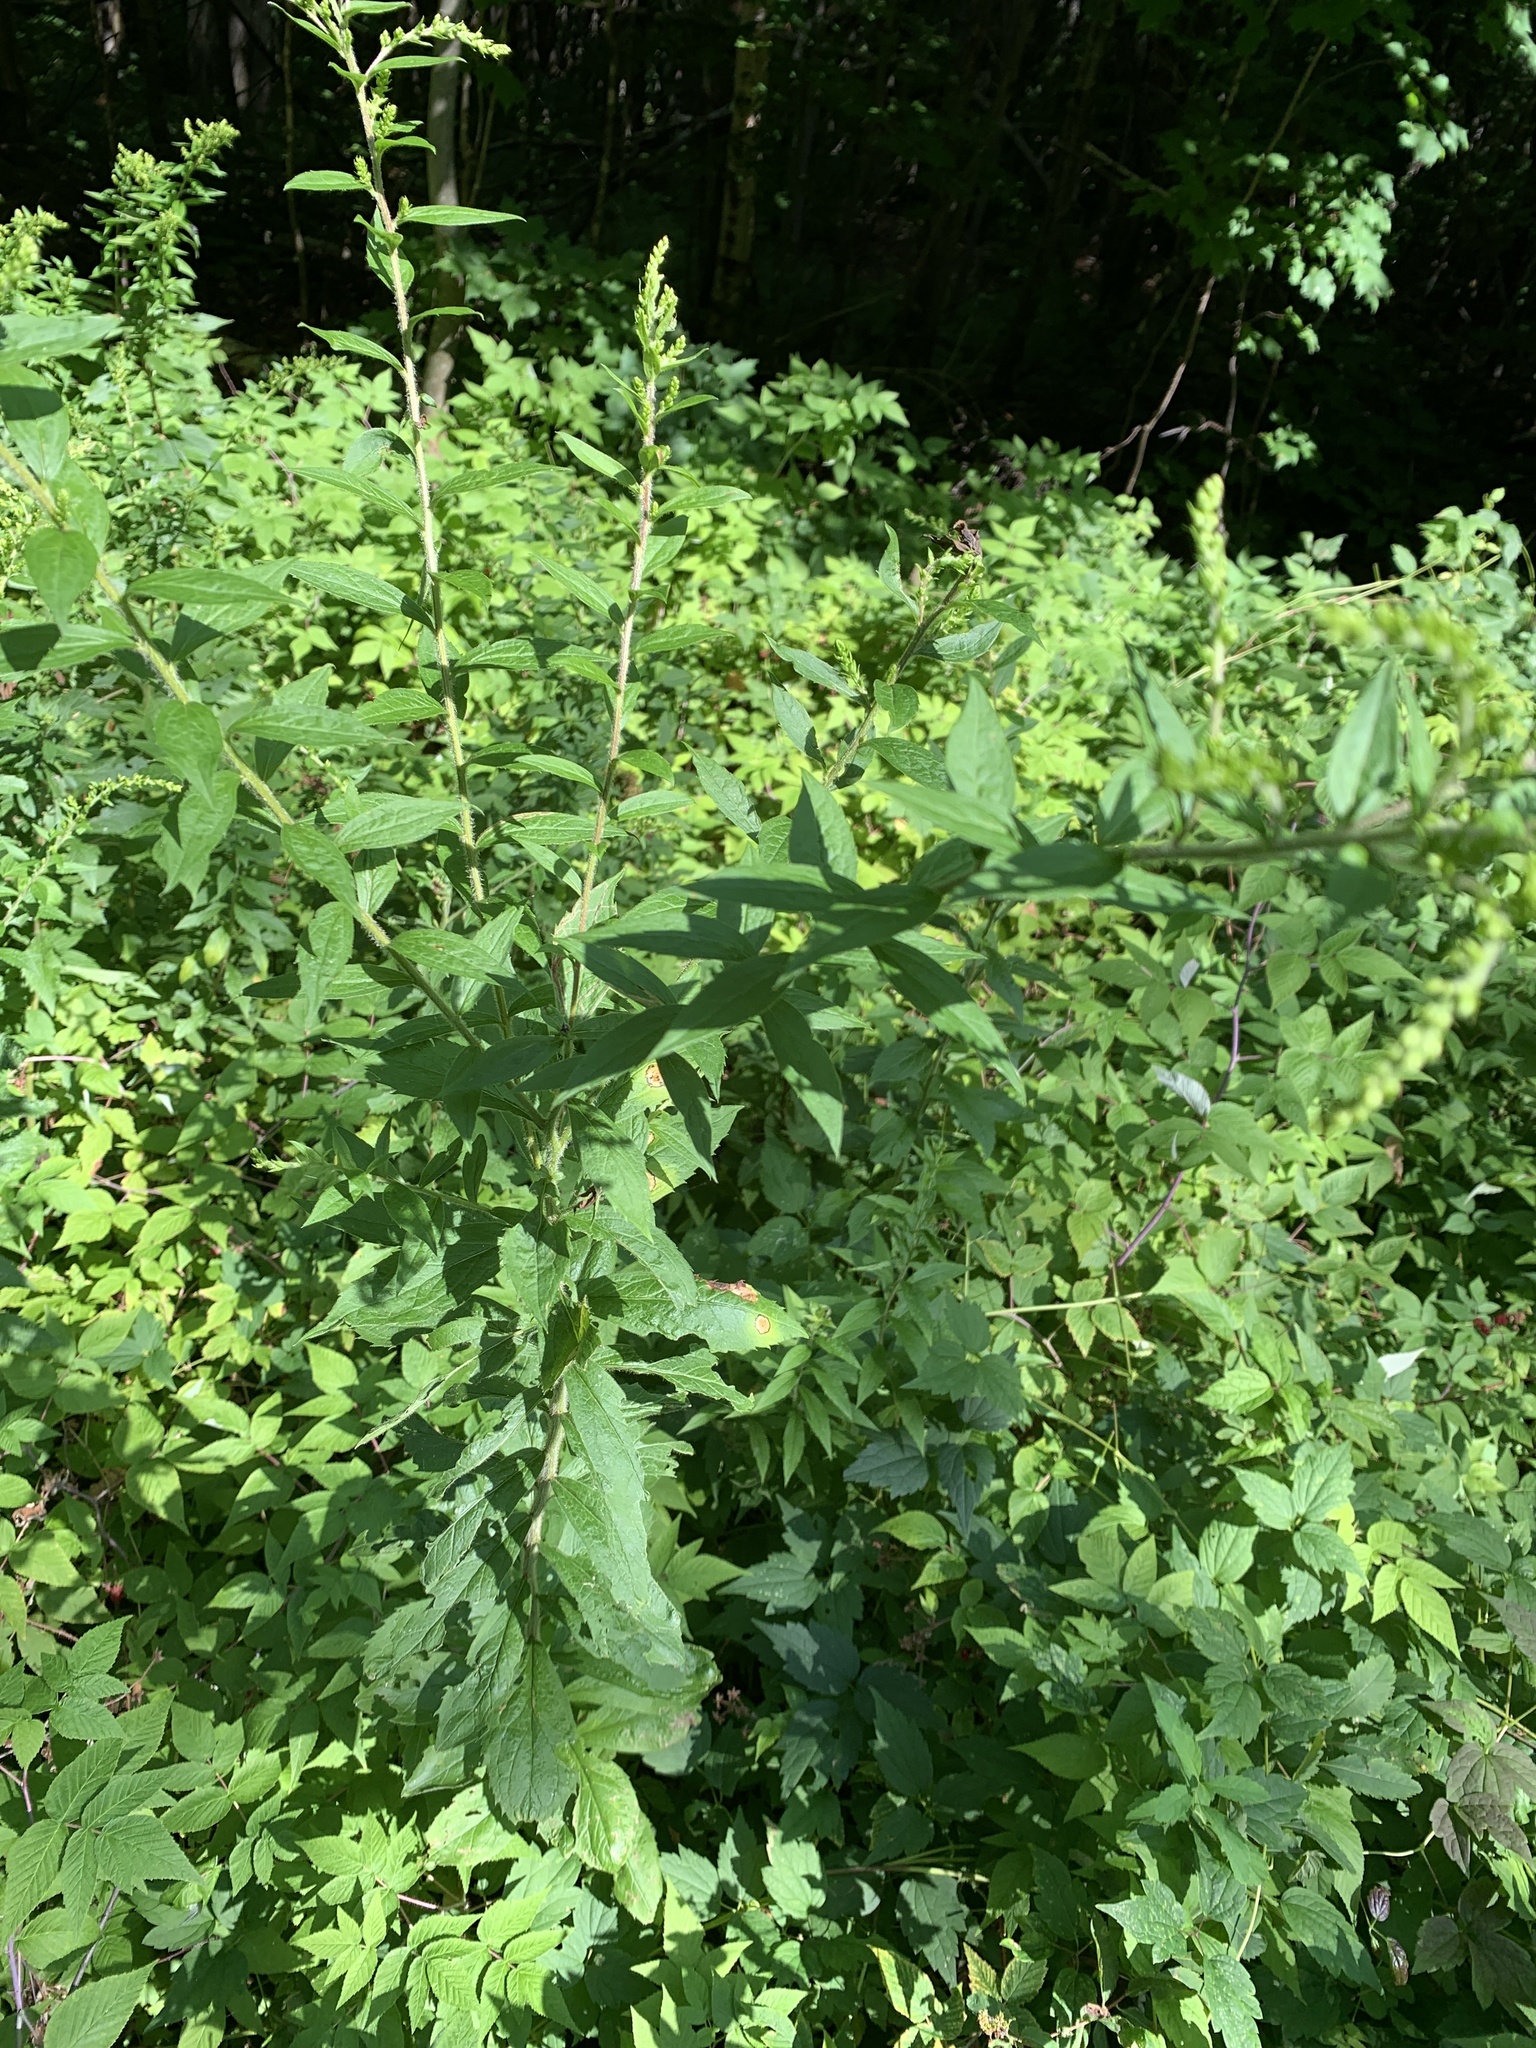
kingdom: Plantae
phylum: Tracheophyta
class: Magnoliopsida
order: Asterales
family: Asteraceae
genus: Solidago
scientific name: Solidago rugosa
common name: Rough-stemmed goldenrod
